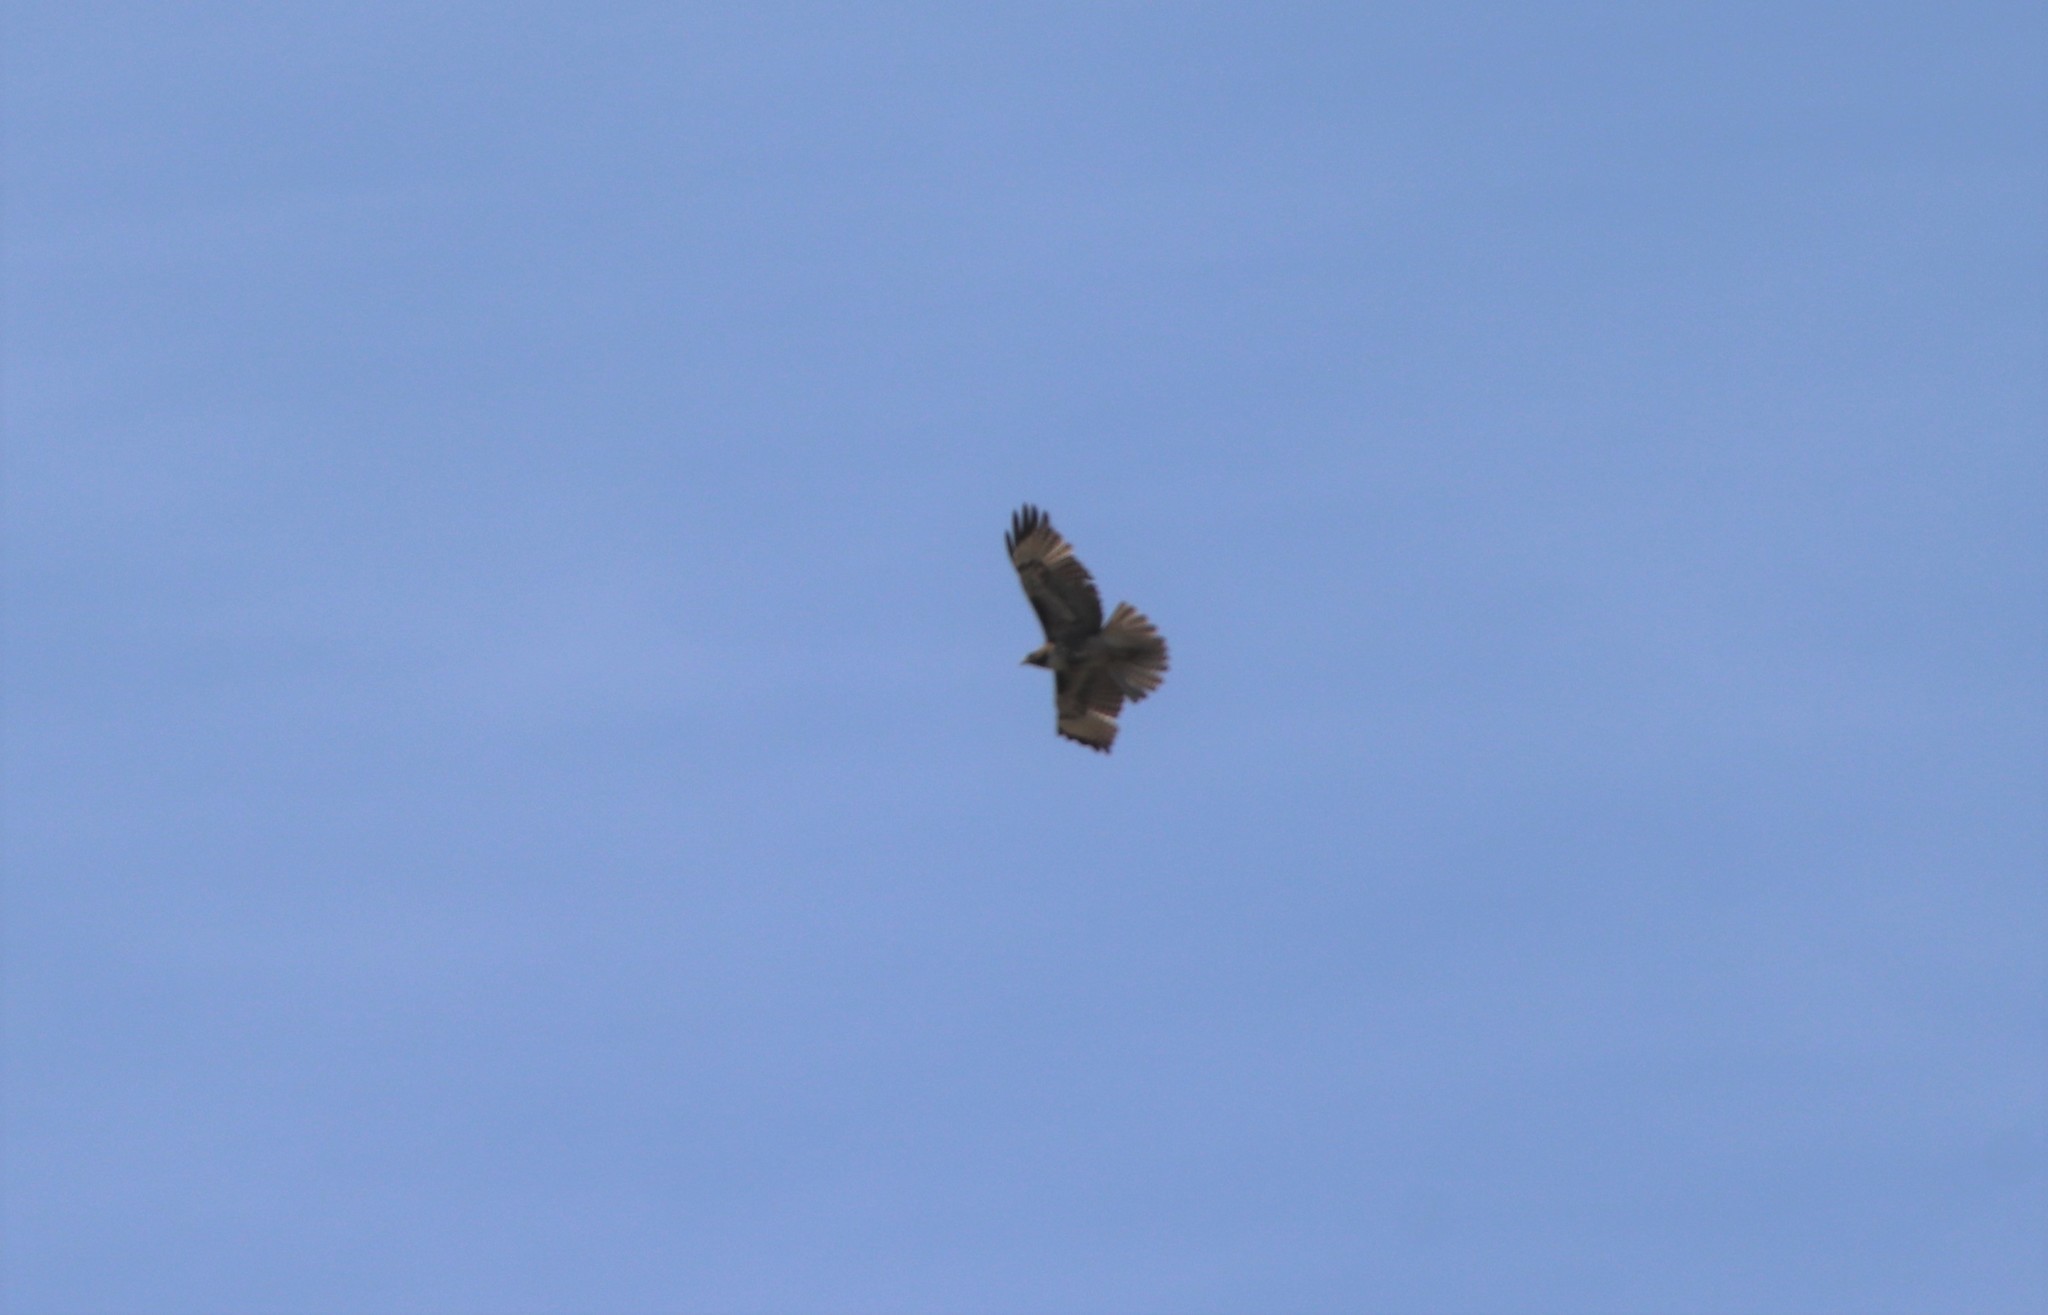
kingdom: Animalia
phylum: Chordata
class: Aves
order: Accipitriformes
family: Accipitridae
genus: Buteo
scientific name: Buteo jamaicensis
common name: Red-tailed hawk
